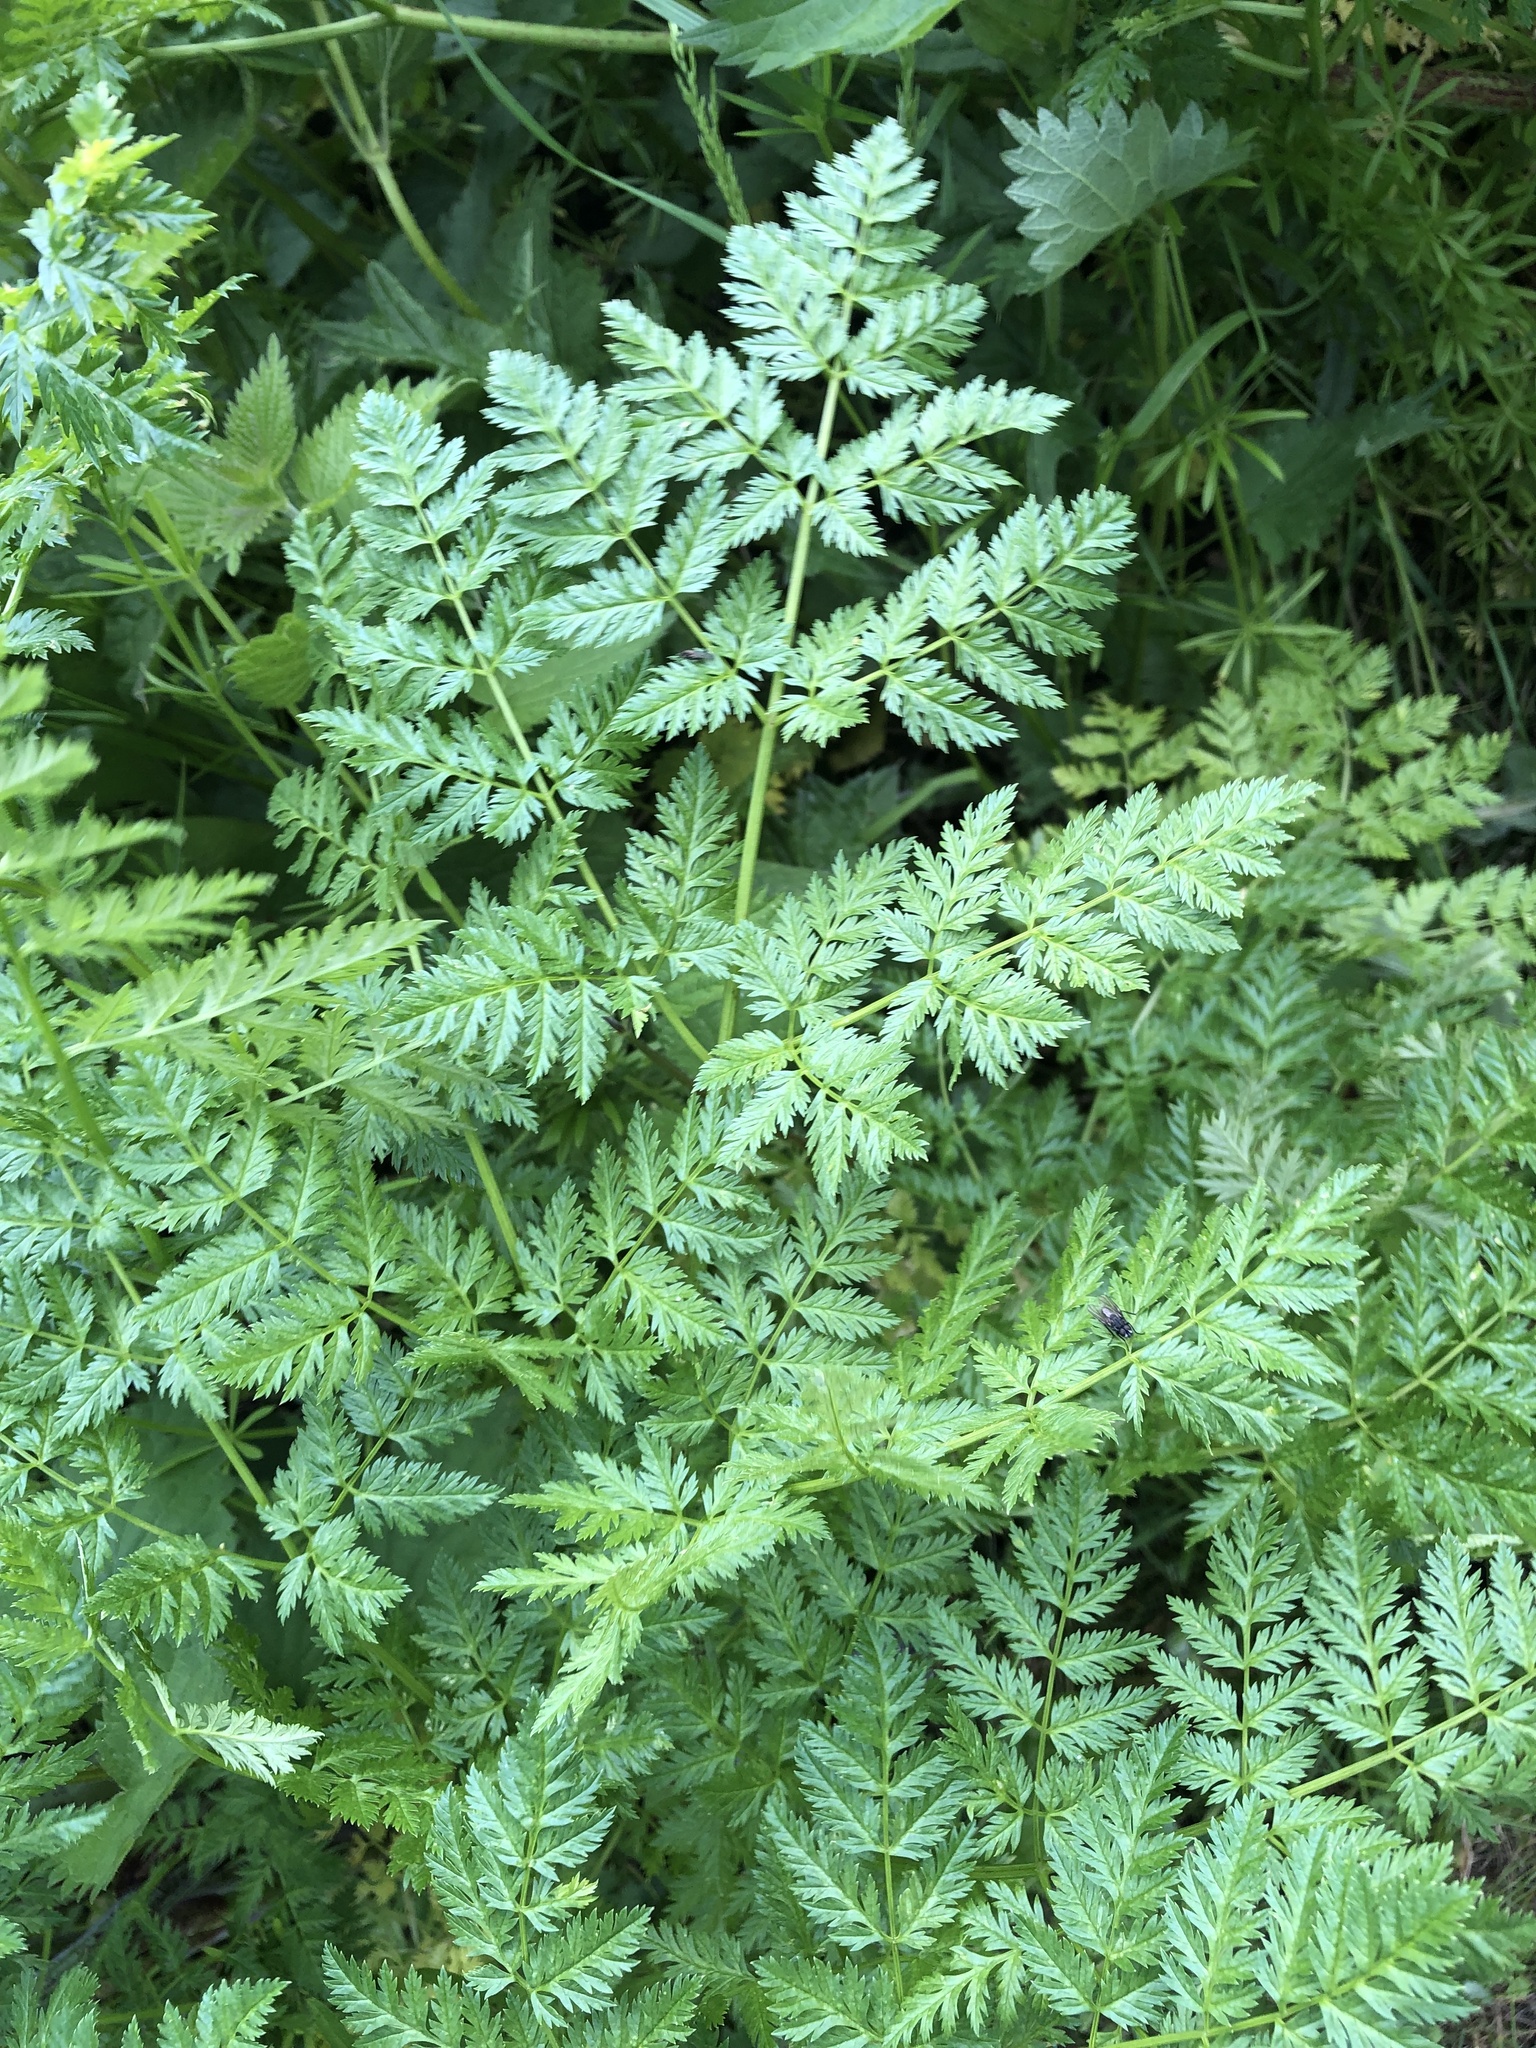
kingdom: Plantae
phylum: Tracheophyta
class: Magnoliopsida
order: Apiales
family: Apiaceae
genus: Conium
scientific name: Conium maculatum
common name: Hemlock
